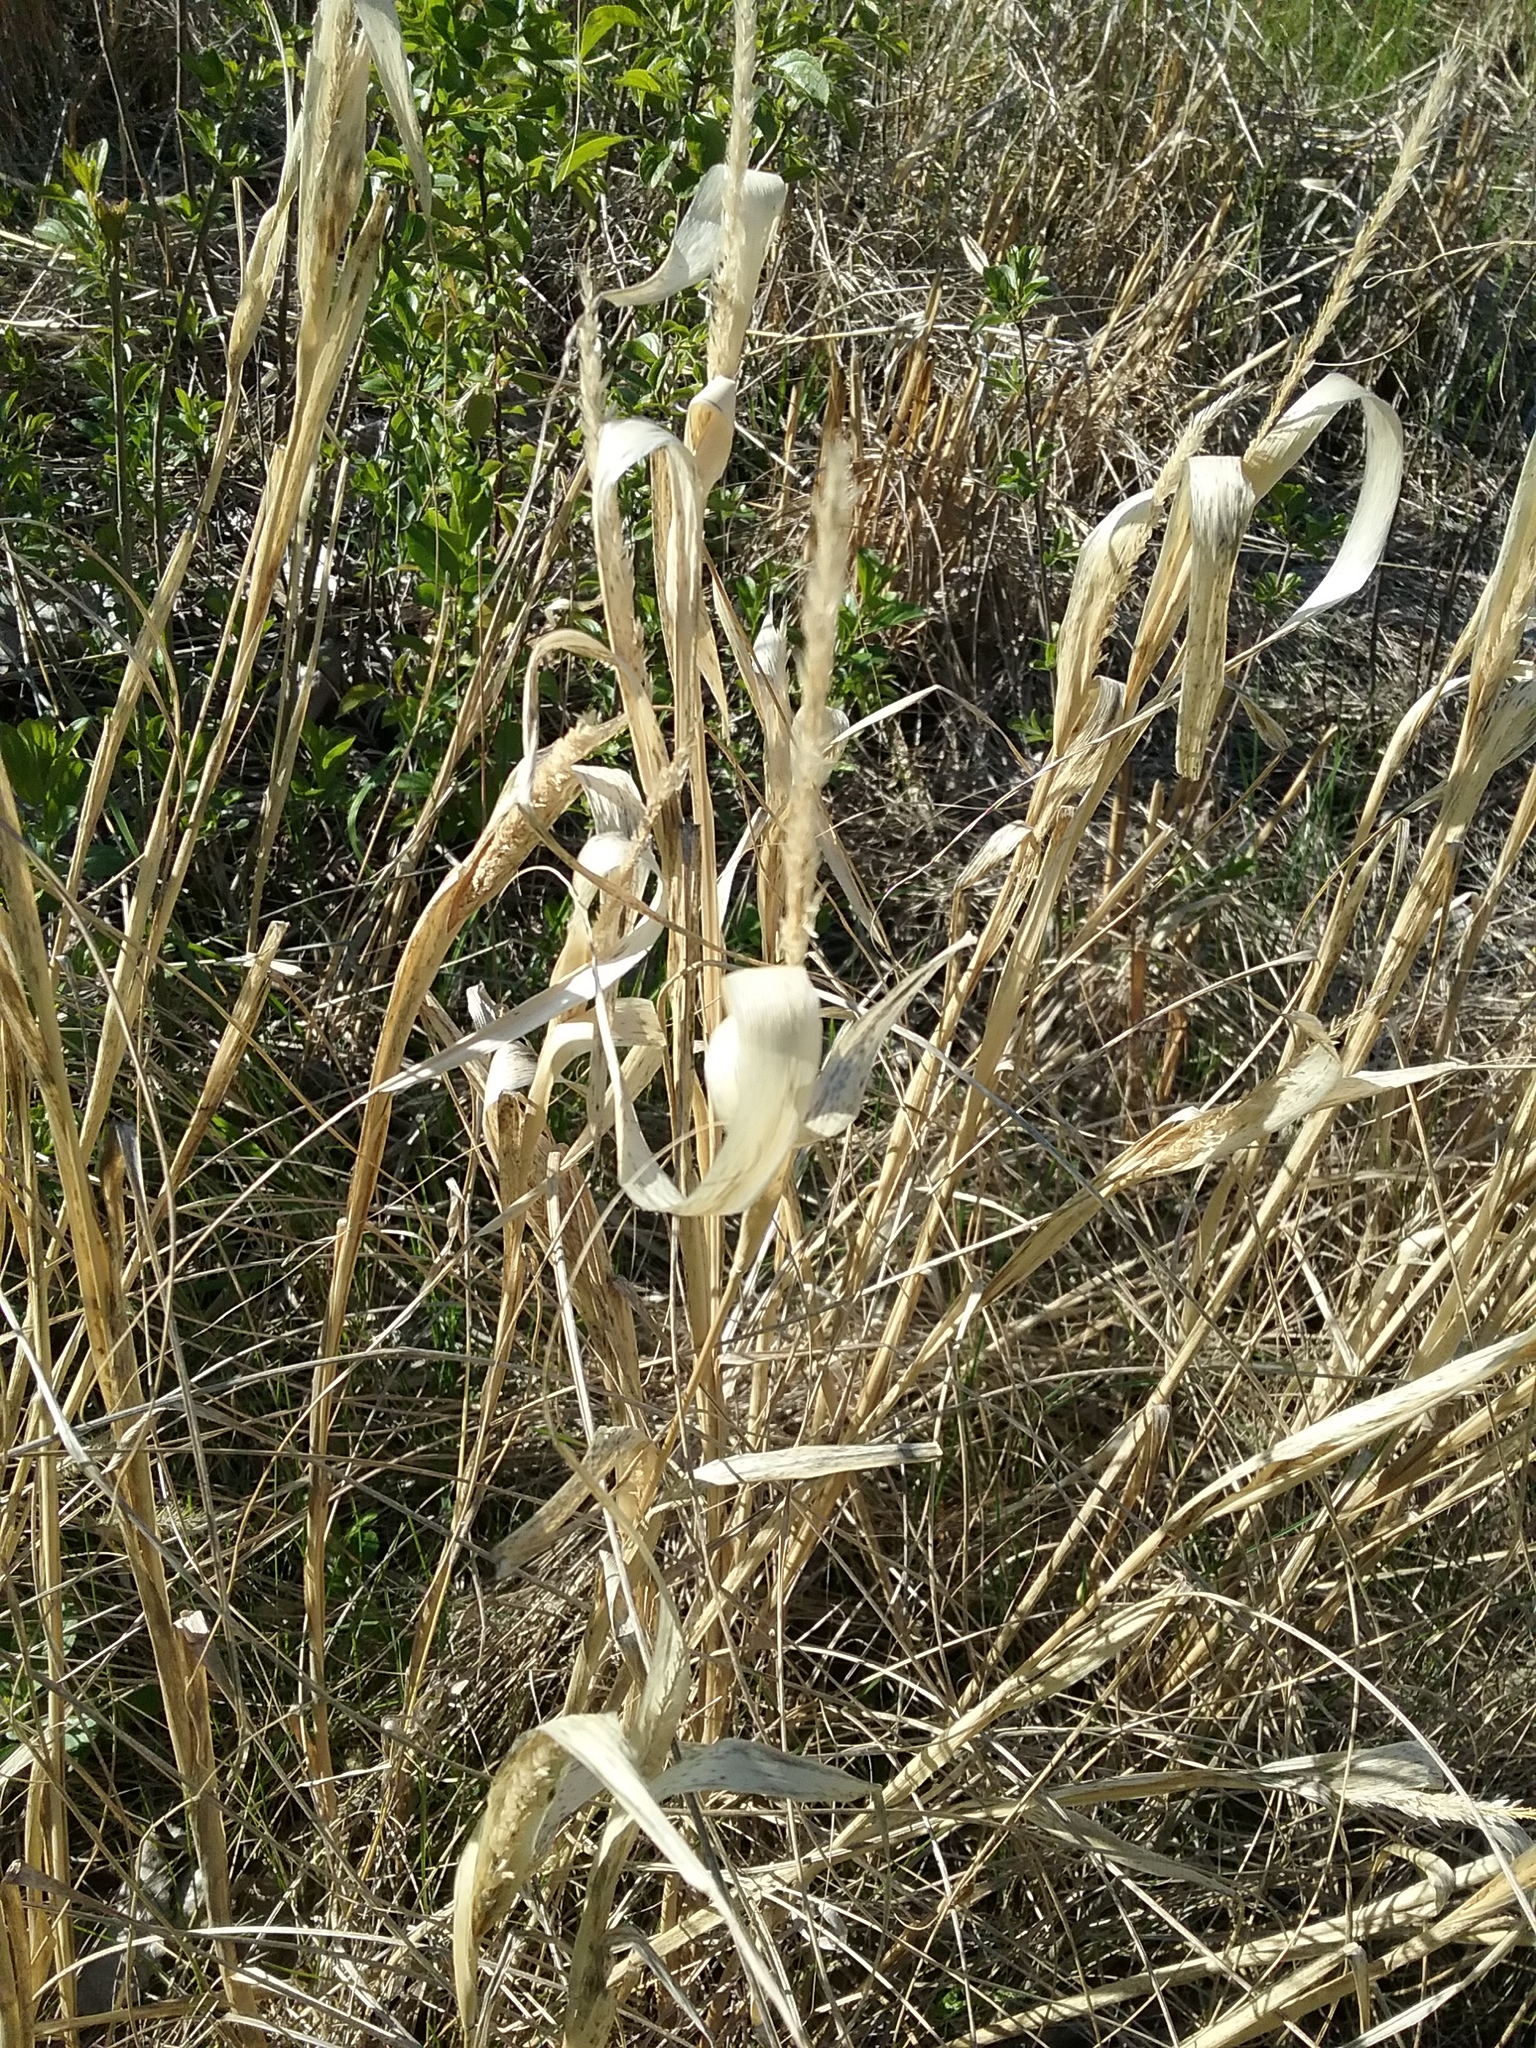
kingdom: Plantae
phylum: Tracheophyta
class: Liliopsida
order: Poales
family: Poaceae
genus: Phalaris
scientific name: Phalaris arundinacea
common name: Reed canary-grass
